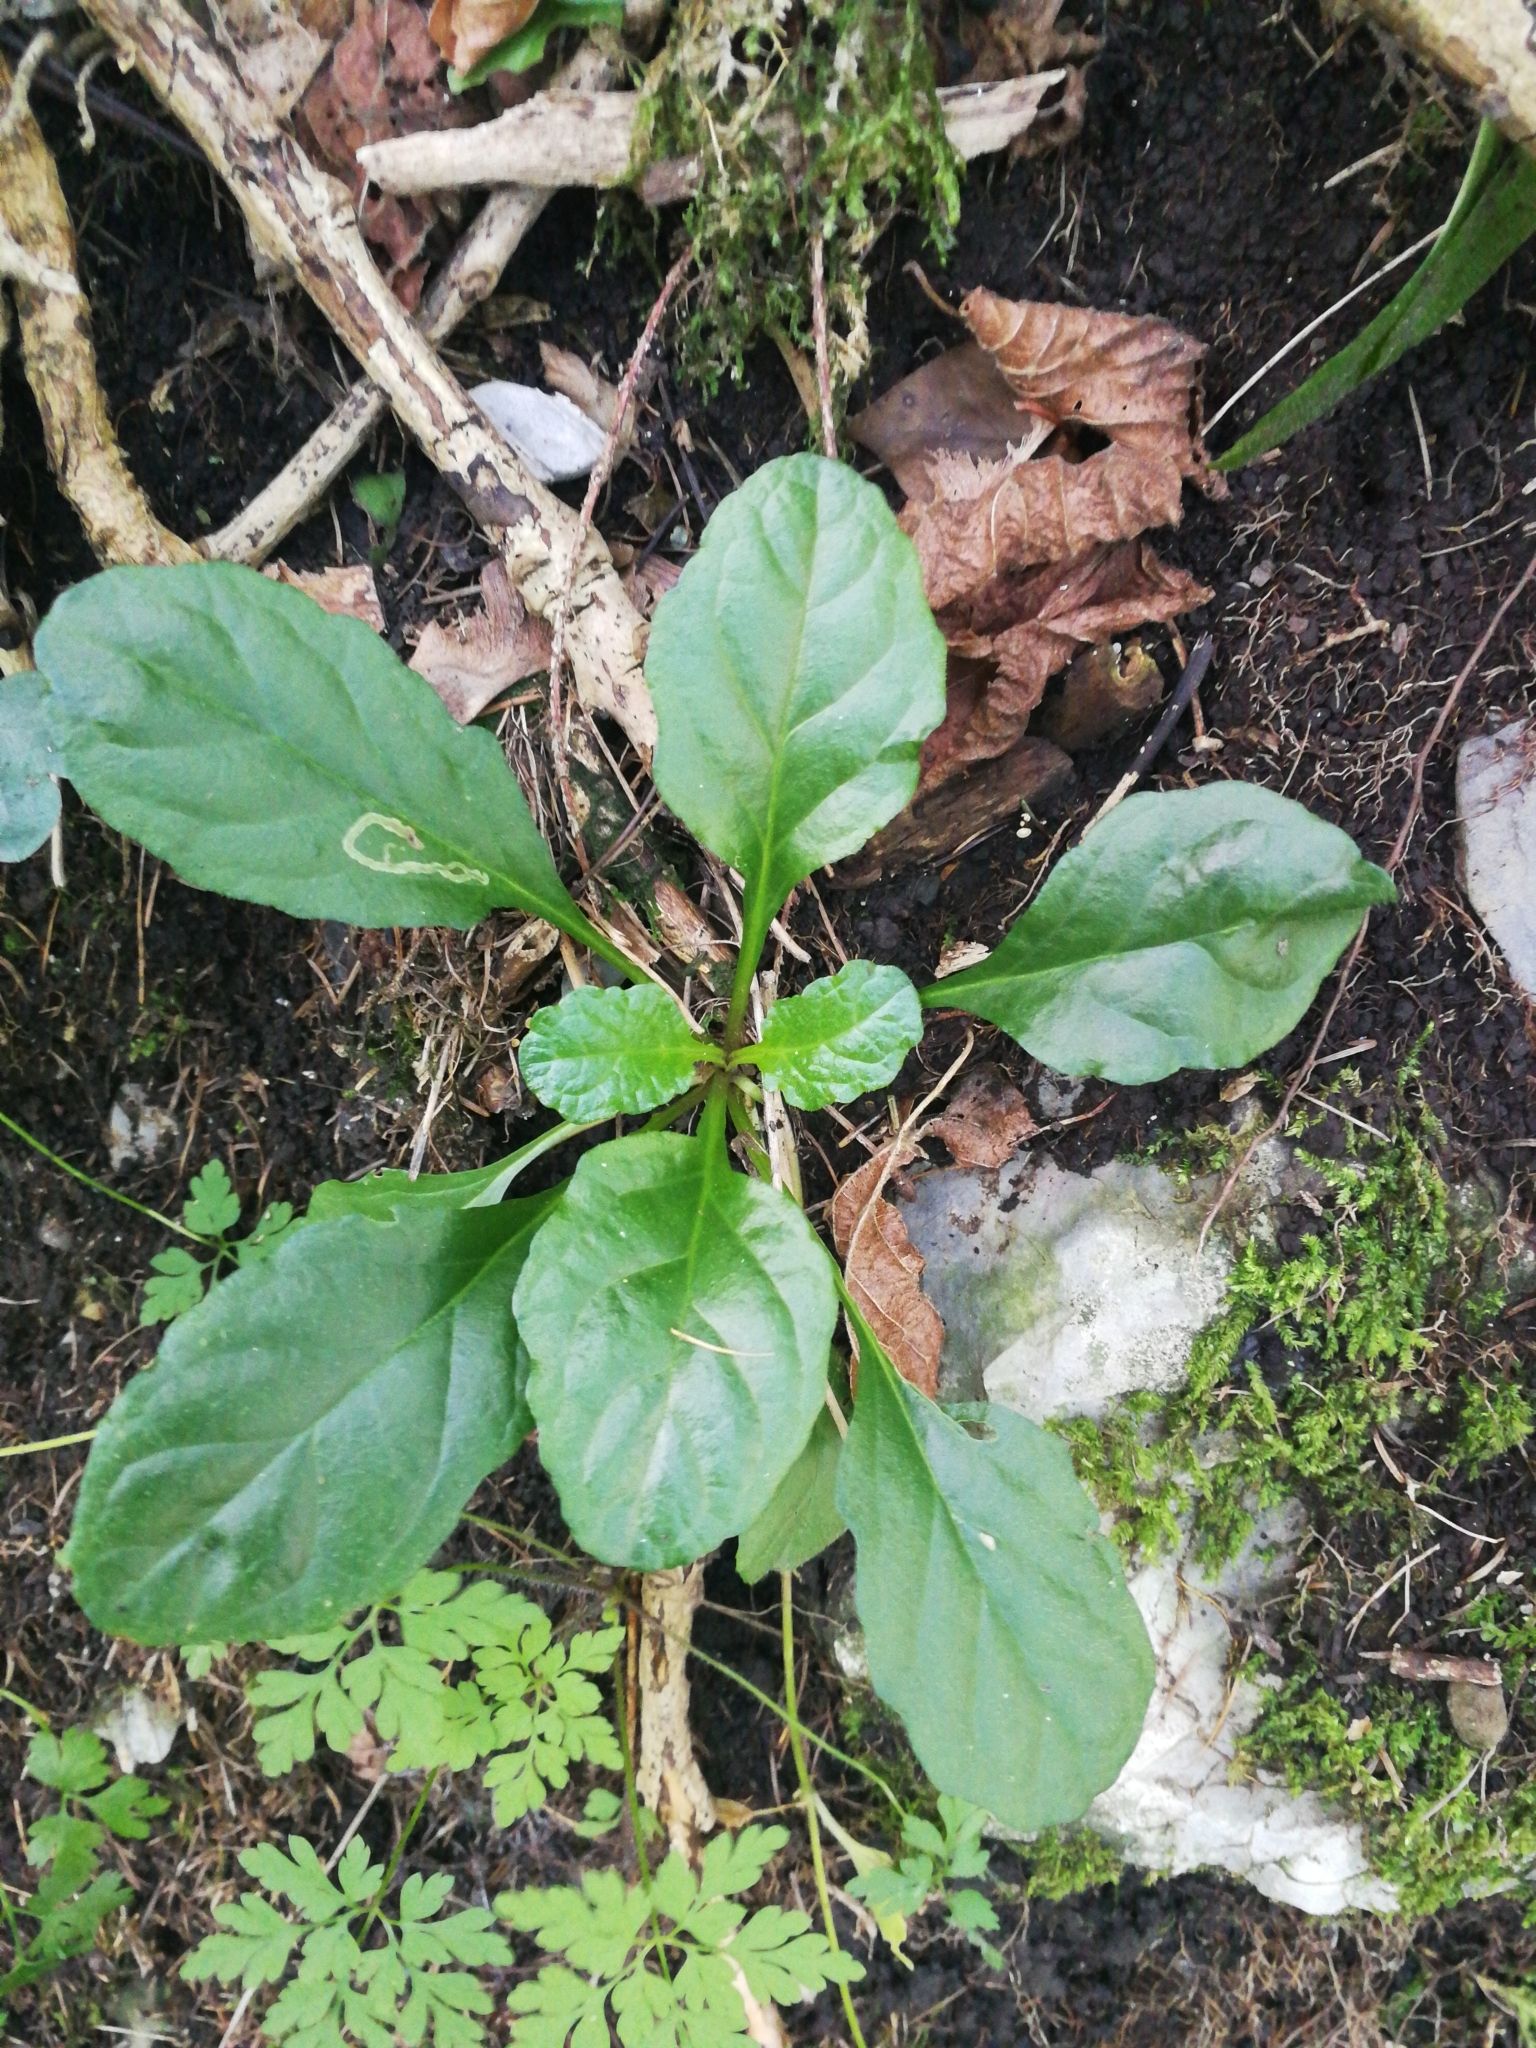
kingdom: Plantae
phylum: Tracheophyta
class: Magnoliopsida
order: Lamiales
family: Lamiaceae
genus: Ajuga
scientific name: Ajuga reptans
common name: Bugle
